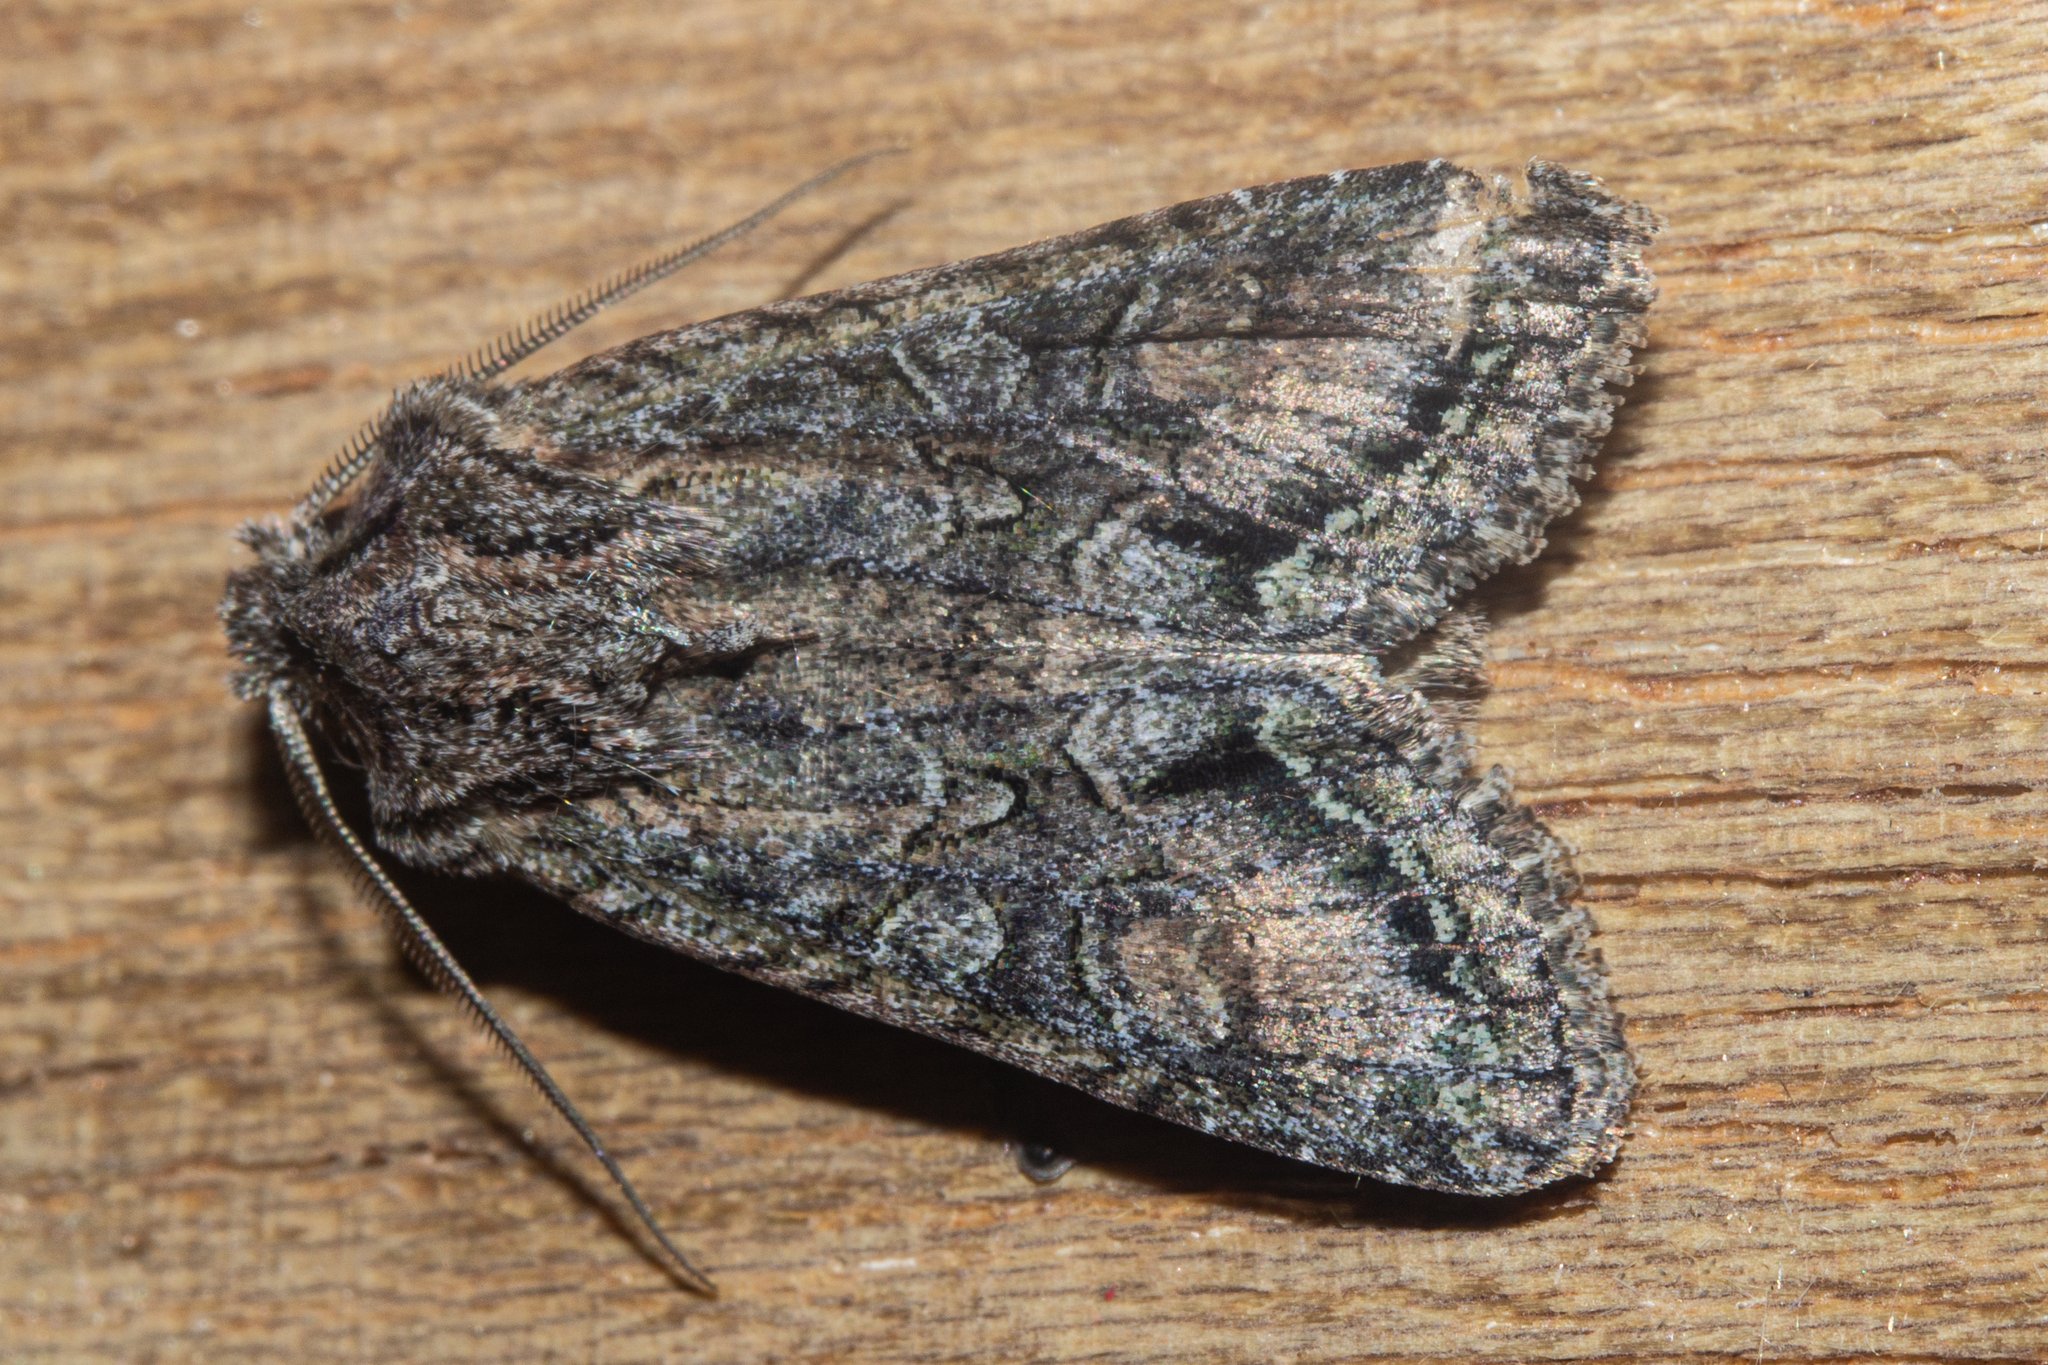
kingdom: Animalia
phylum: Arthropoda
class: Insecta
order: Lepidoptera
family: Noctuidae
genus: Ichneutica
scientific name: Ichneutica mutans
